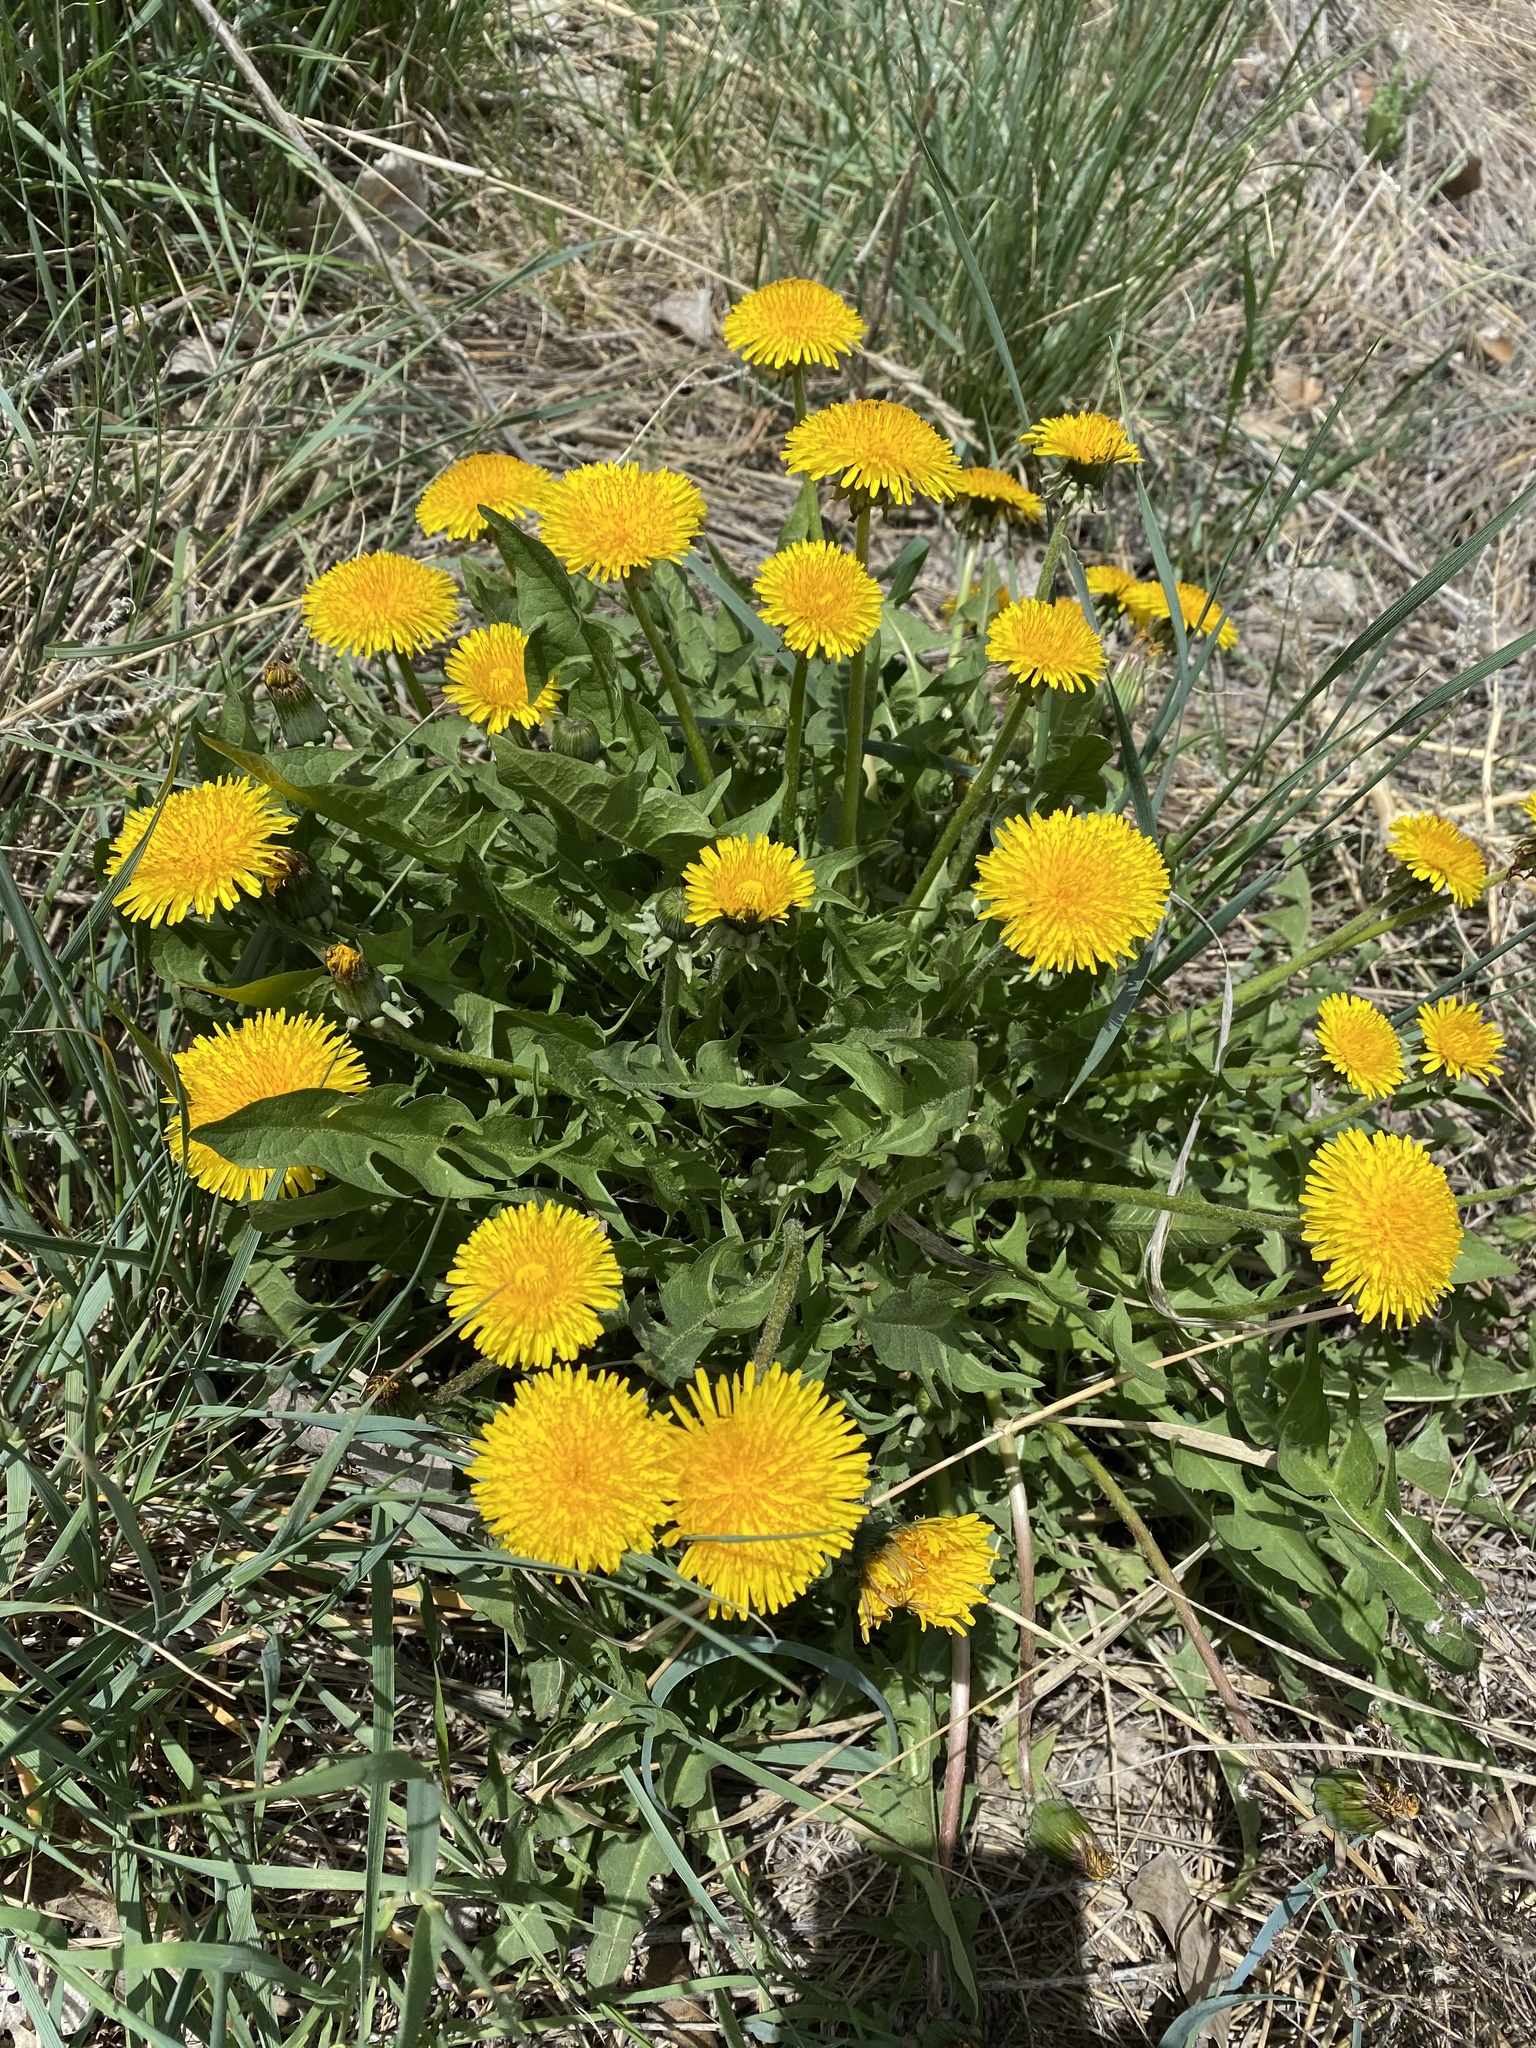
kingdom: Plantae
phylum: Tracheophyta
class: Magnoliopsida
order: Asterales
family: Asteraceae
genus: Taraxacum
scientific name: Taraxacum officinale
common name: Common dandelion
